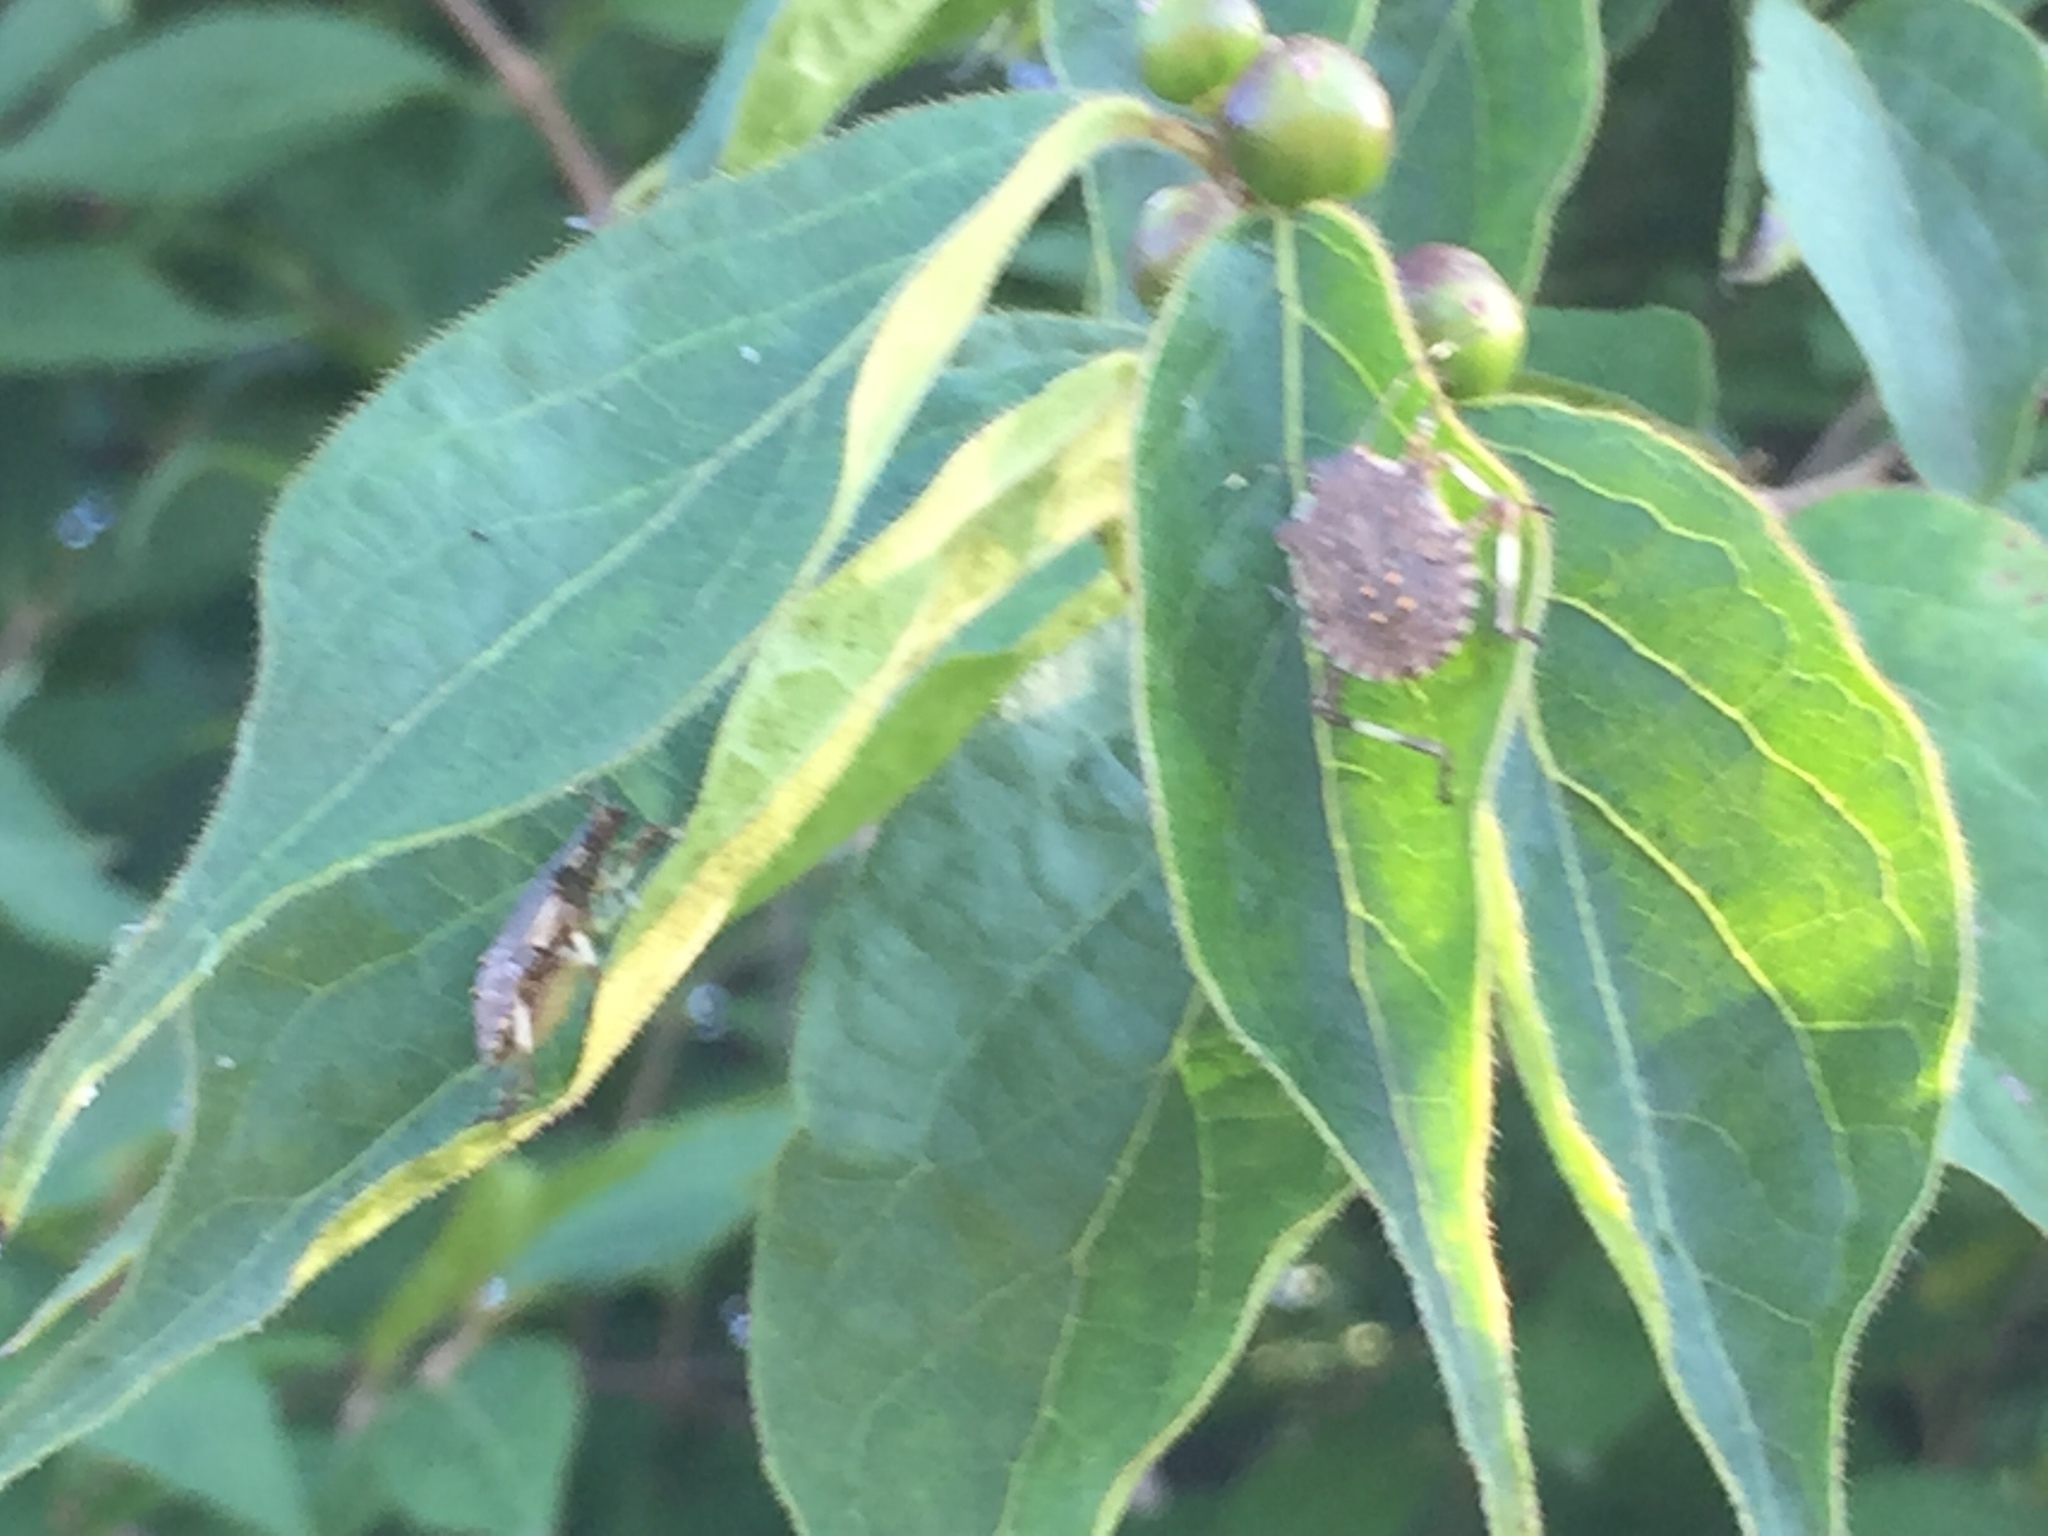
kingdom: Animalia
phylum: Arthropoda
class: Insecta
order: Hemiptera
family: Pentatomidae
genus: Halyomorpha
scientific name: Halyomorpha halys
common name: Brown marmorated stink bug
